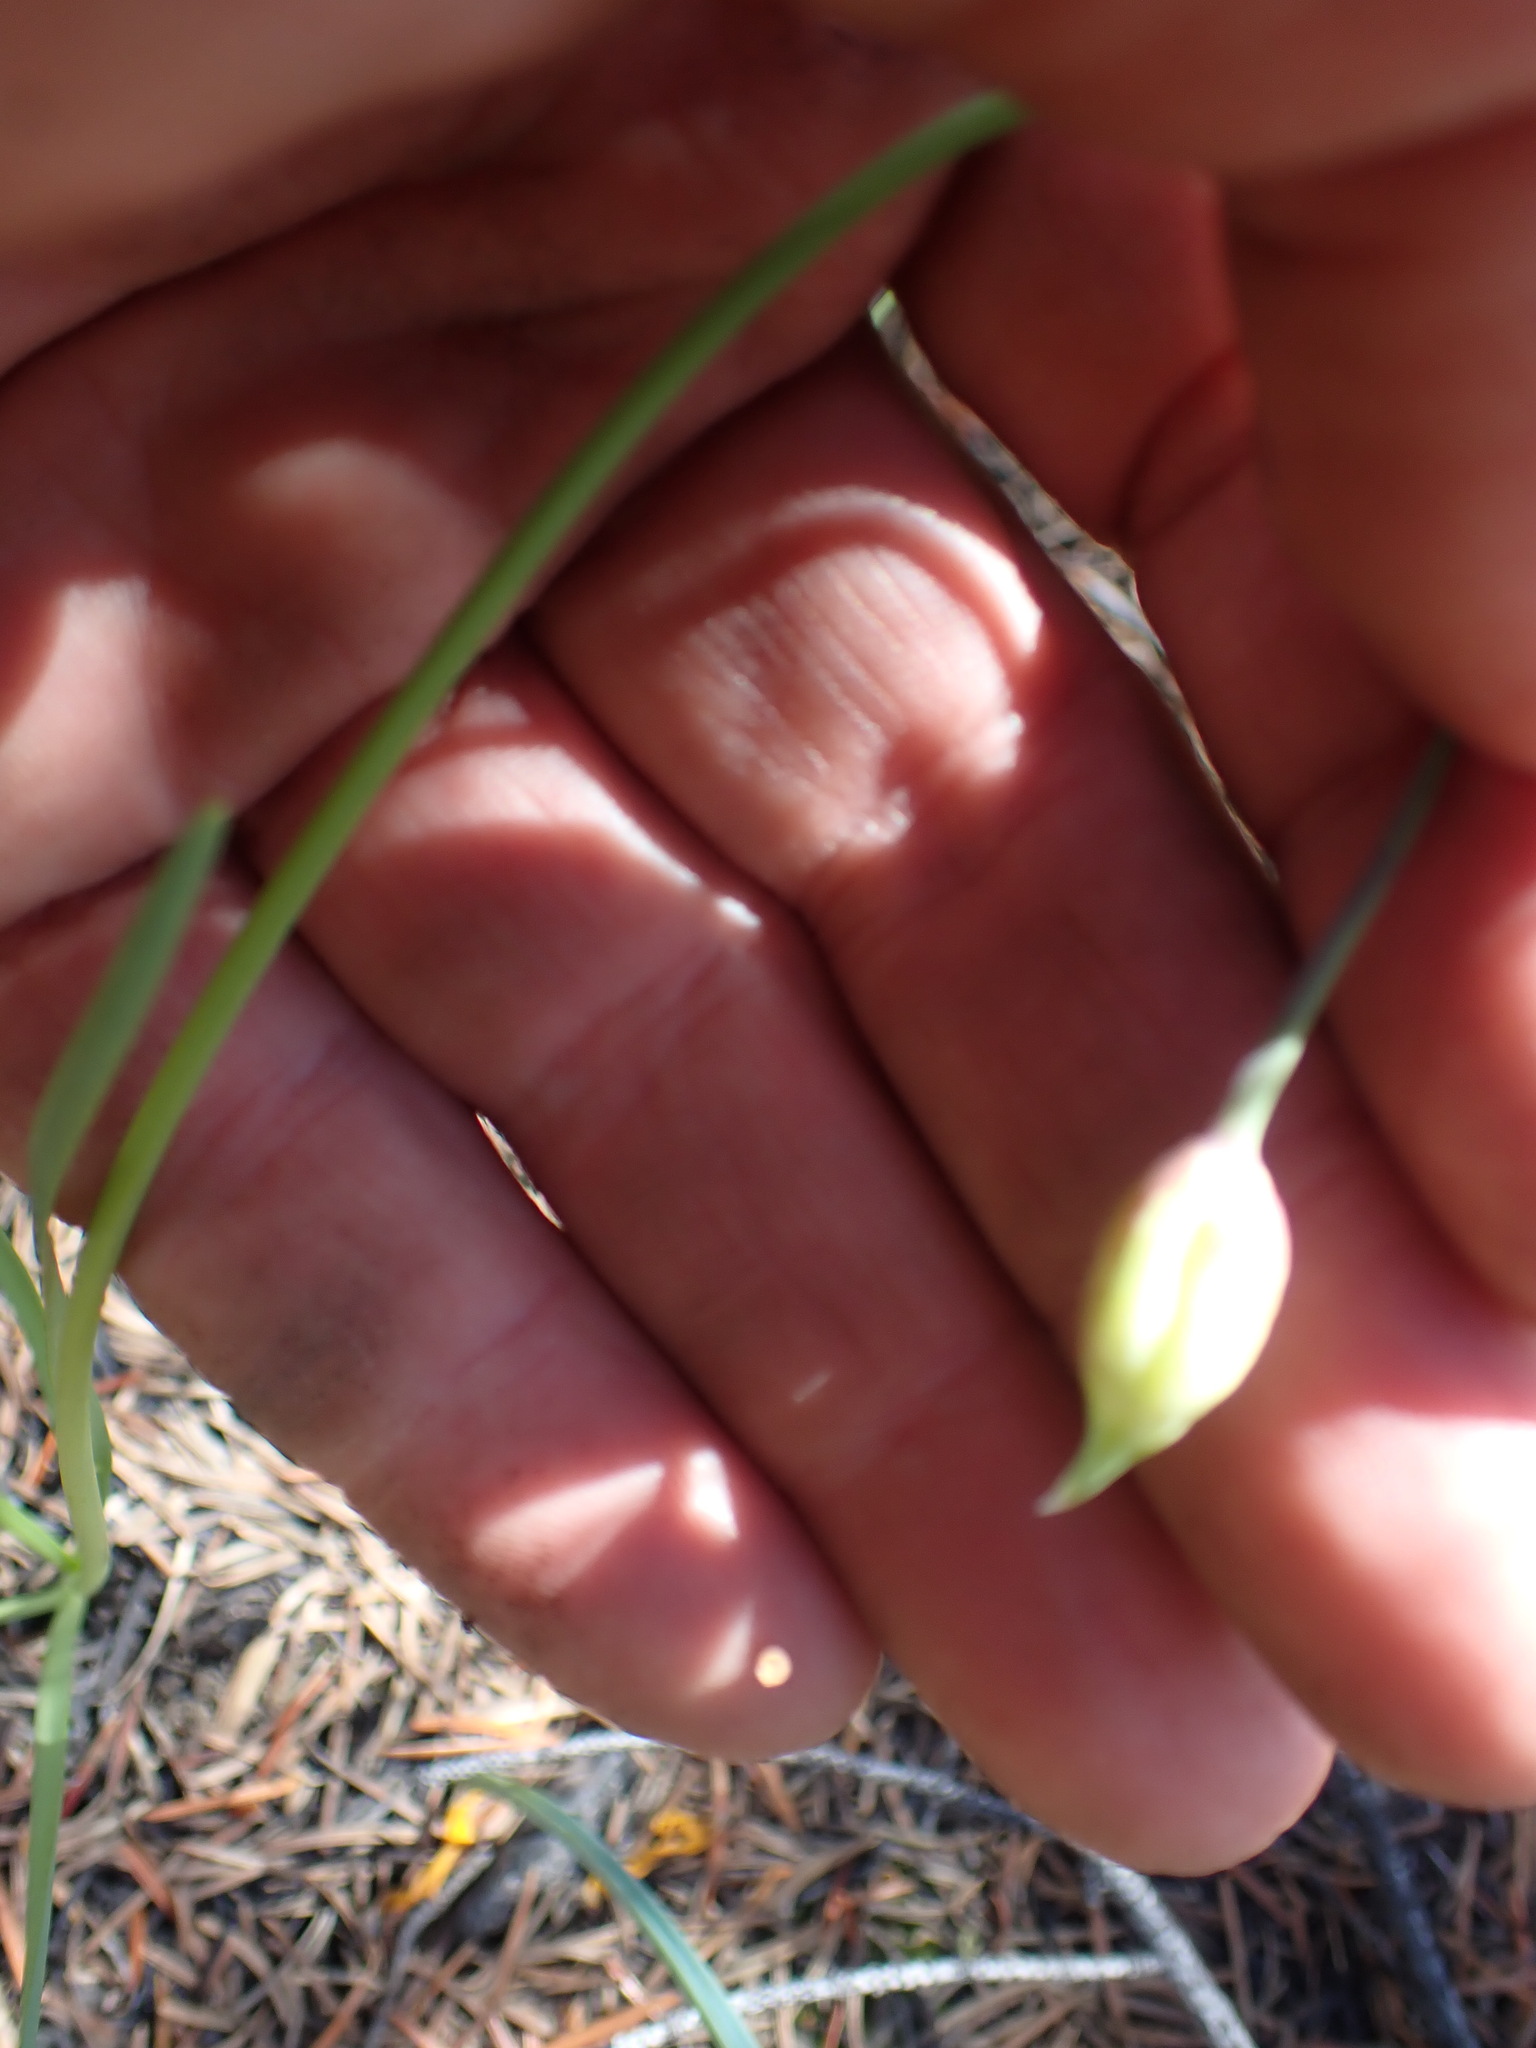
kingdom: Plantae
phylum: Tracheophyta
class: Liliopsida
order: Asparagales
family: Amaryllidaceae
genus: Allium
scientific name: Allium cernuum
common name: Nodding onion
